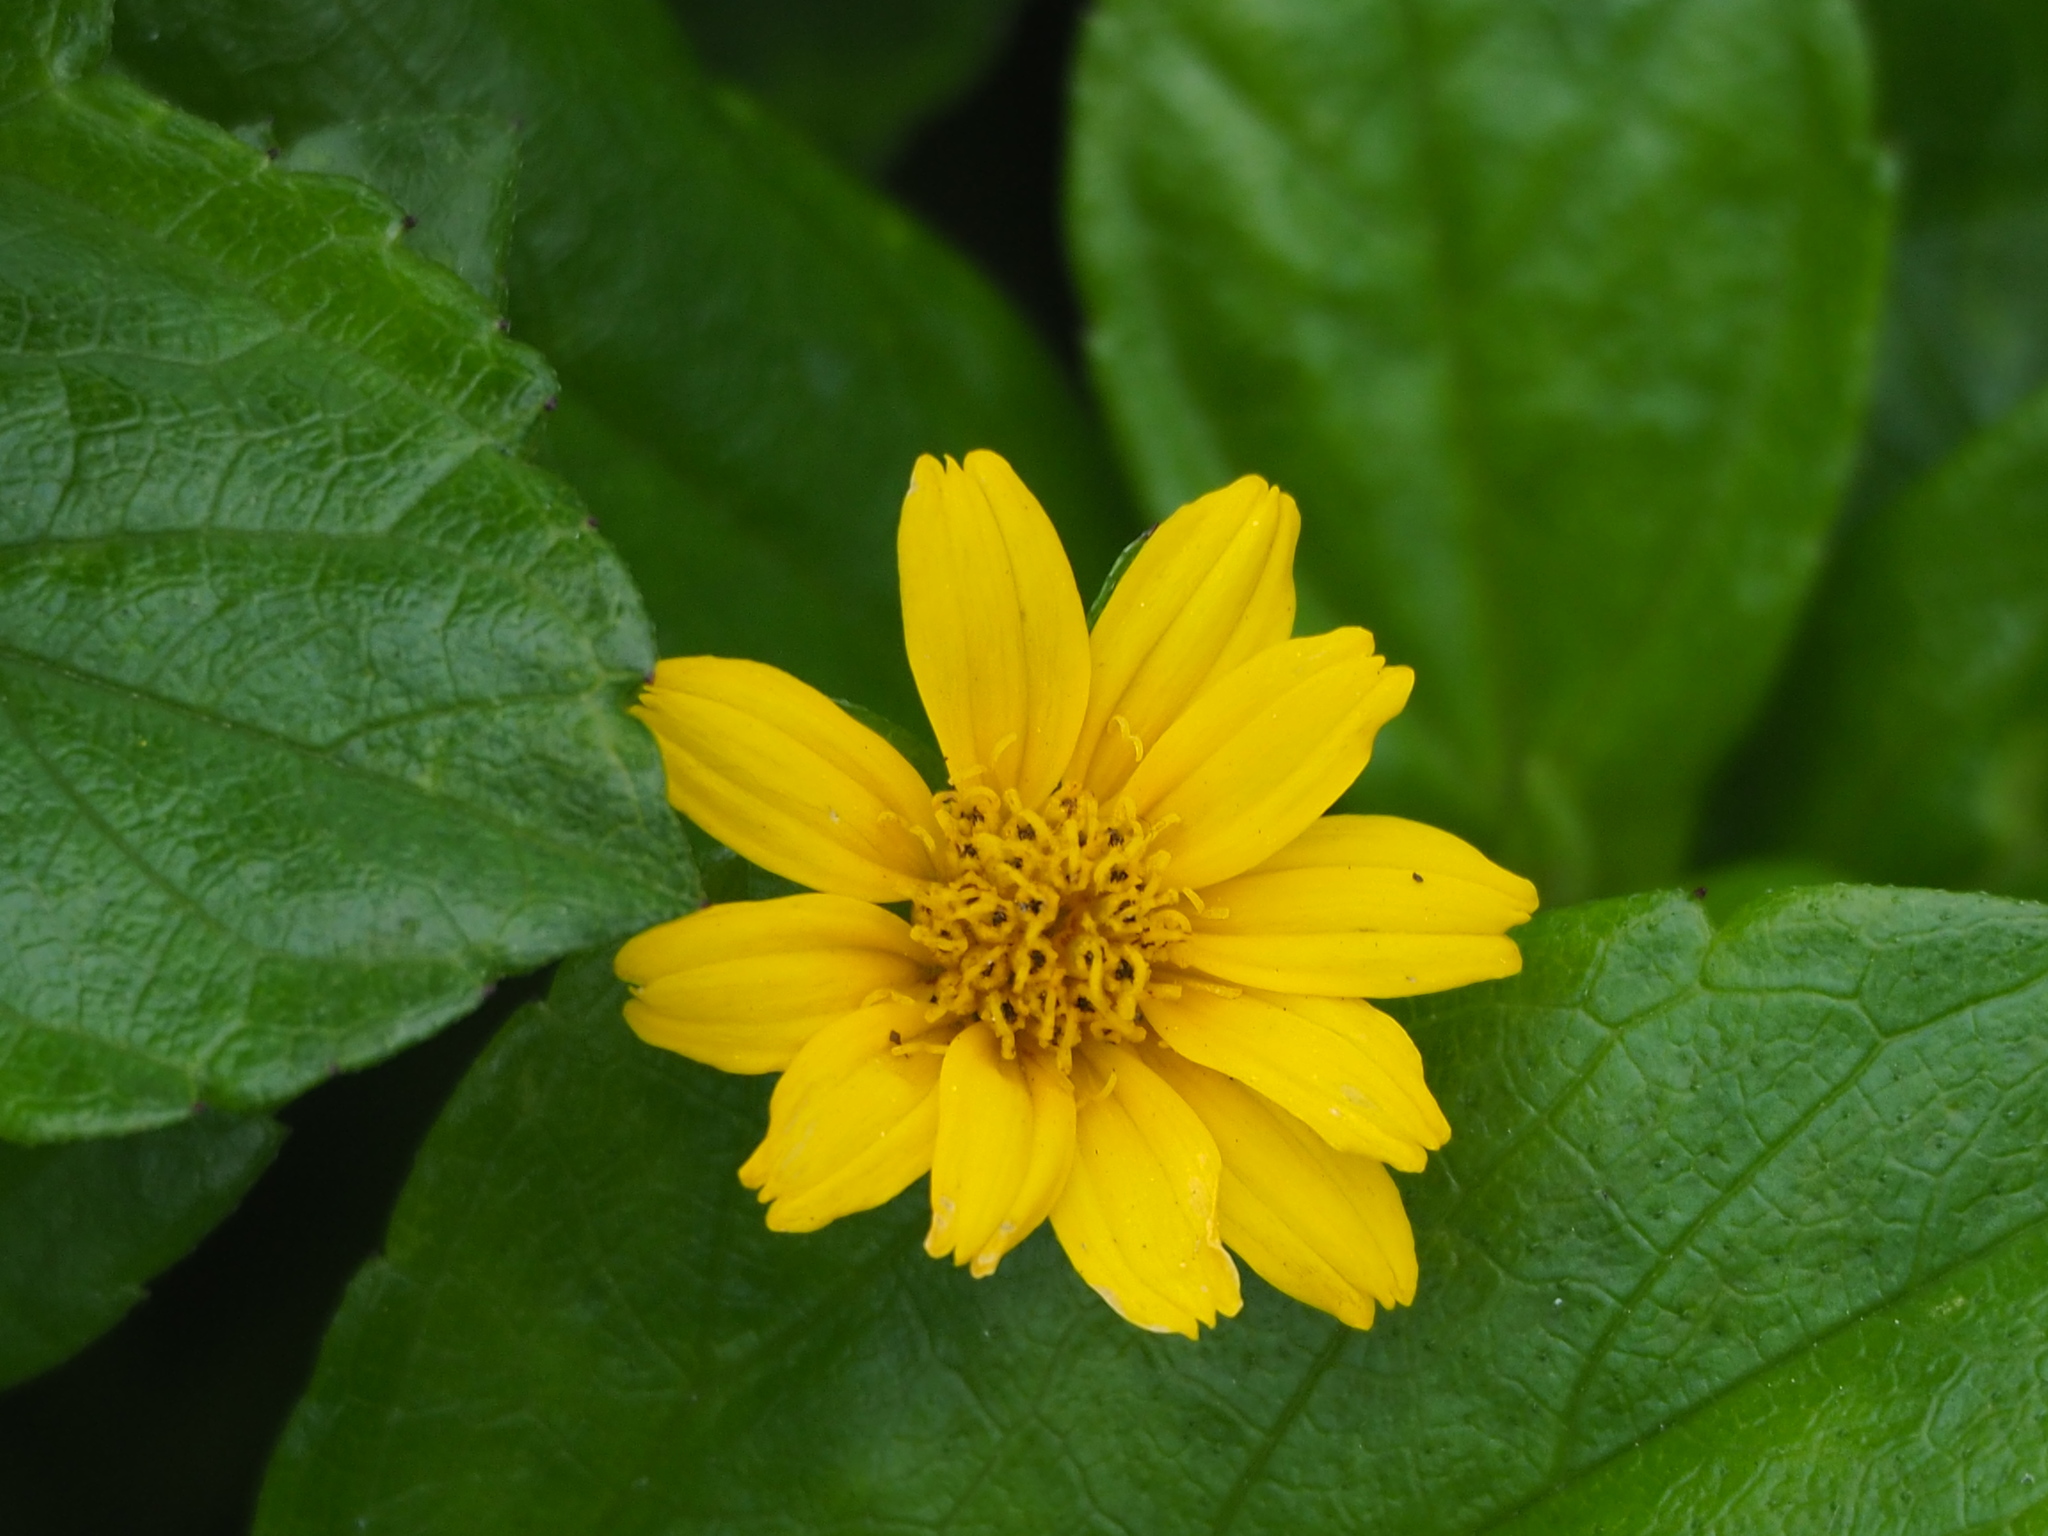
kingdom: Plantae
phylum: Tracheophyta
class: Magnoliopsida
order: Asterales
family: Asteraceae
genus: Sphagneticola
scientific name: Sphagneticola trilobata
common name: Bay biscayne creeping-oxeye
